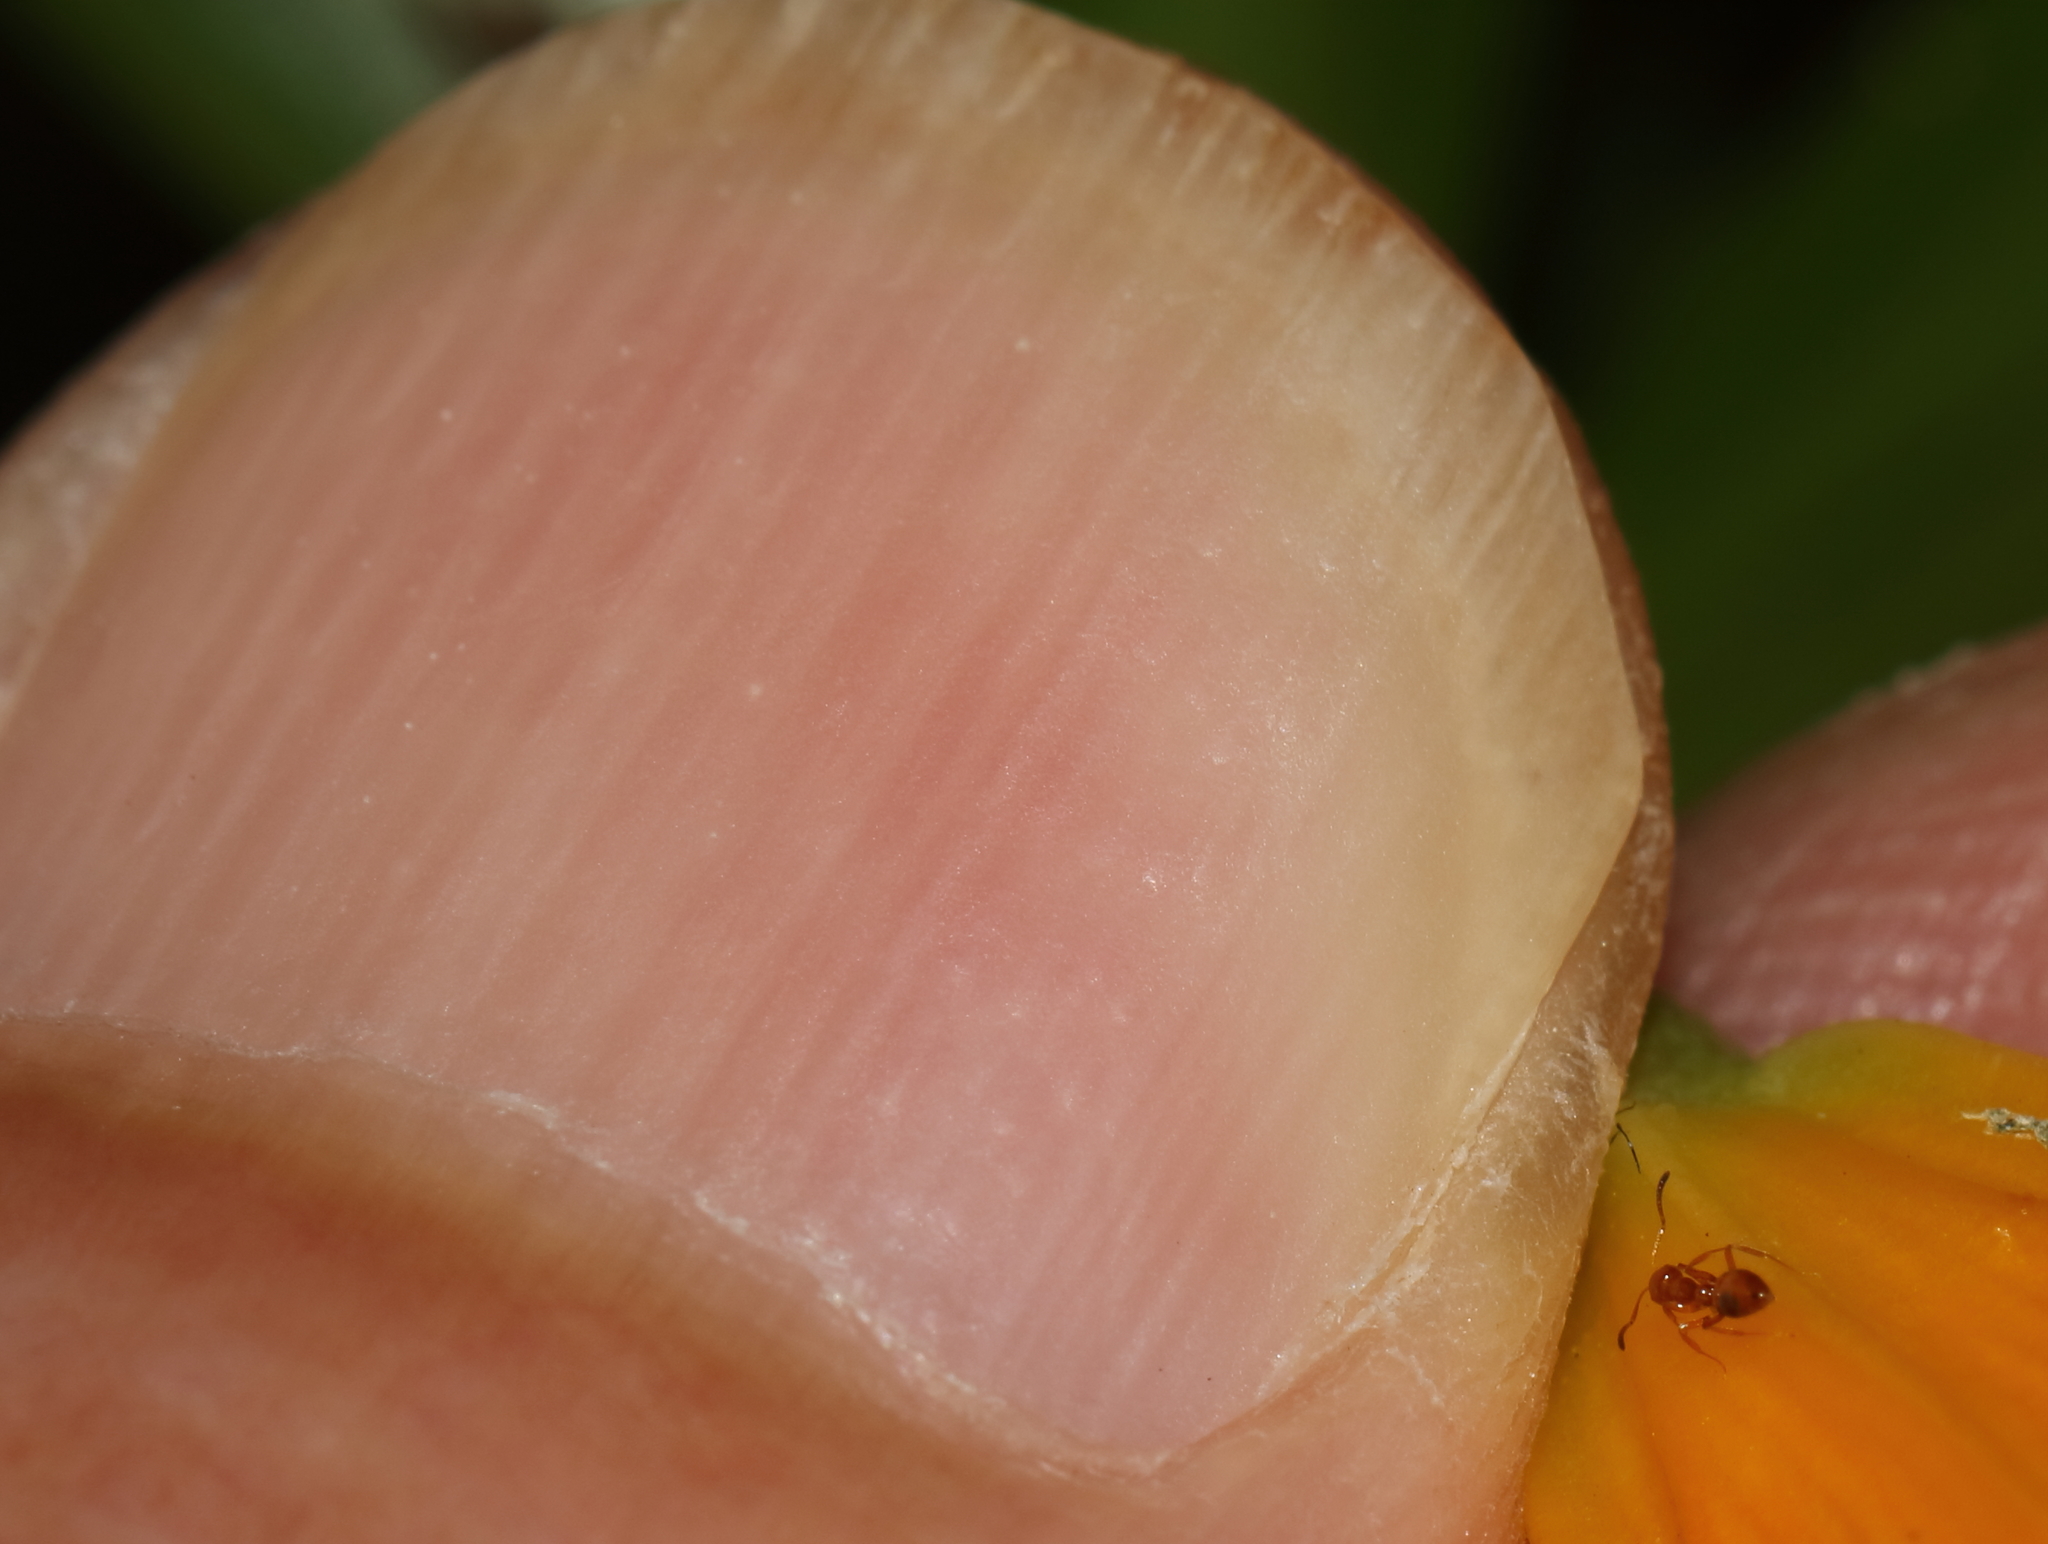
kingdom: Plantae
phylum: Tracheophyta
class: Liliopsida
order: Liliales
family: Colchicaceae
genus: Gloriosa
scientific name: Gloriosa modesta
